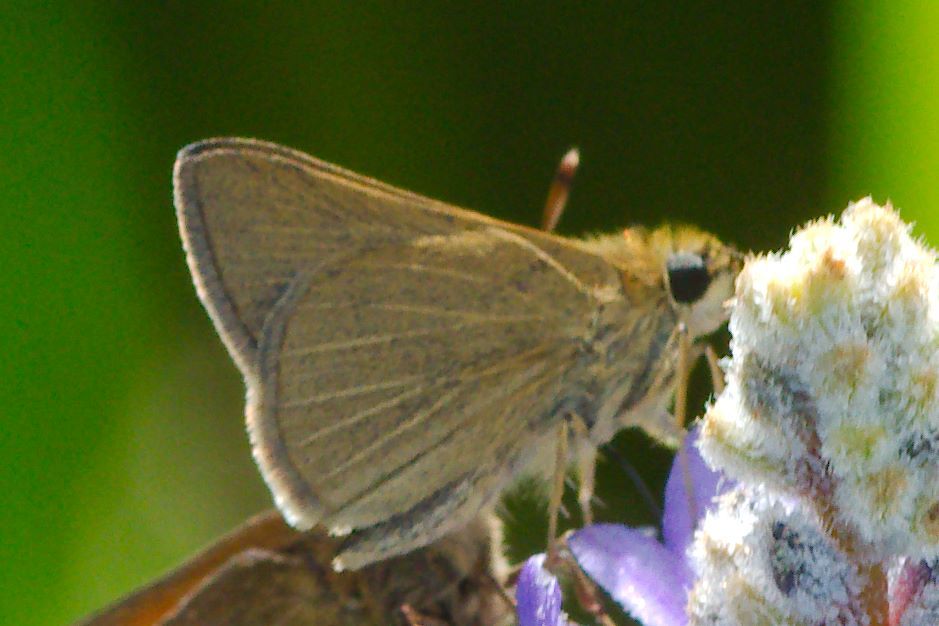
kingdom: Animalia
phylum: Arthropoda
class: Insecta
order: Lepidoptera
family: Hesperiidae
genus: Nastra
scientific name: Nastra lherminier
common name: Swarthy skipper
